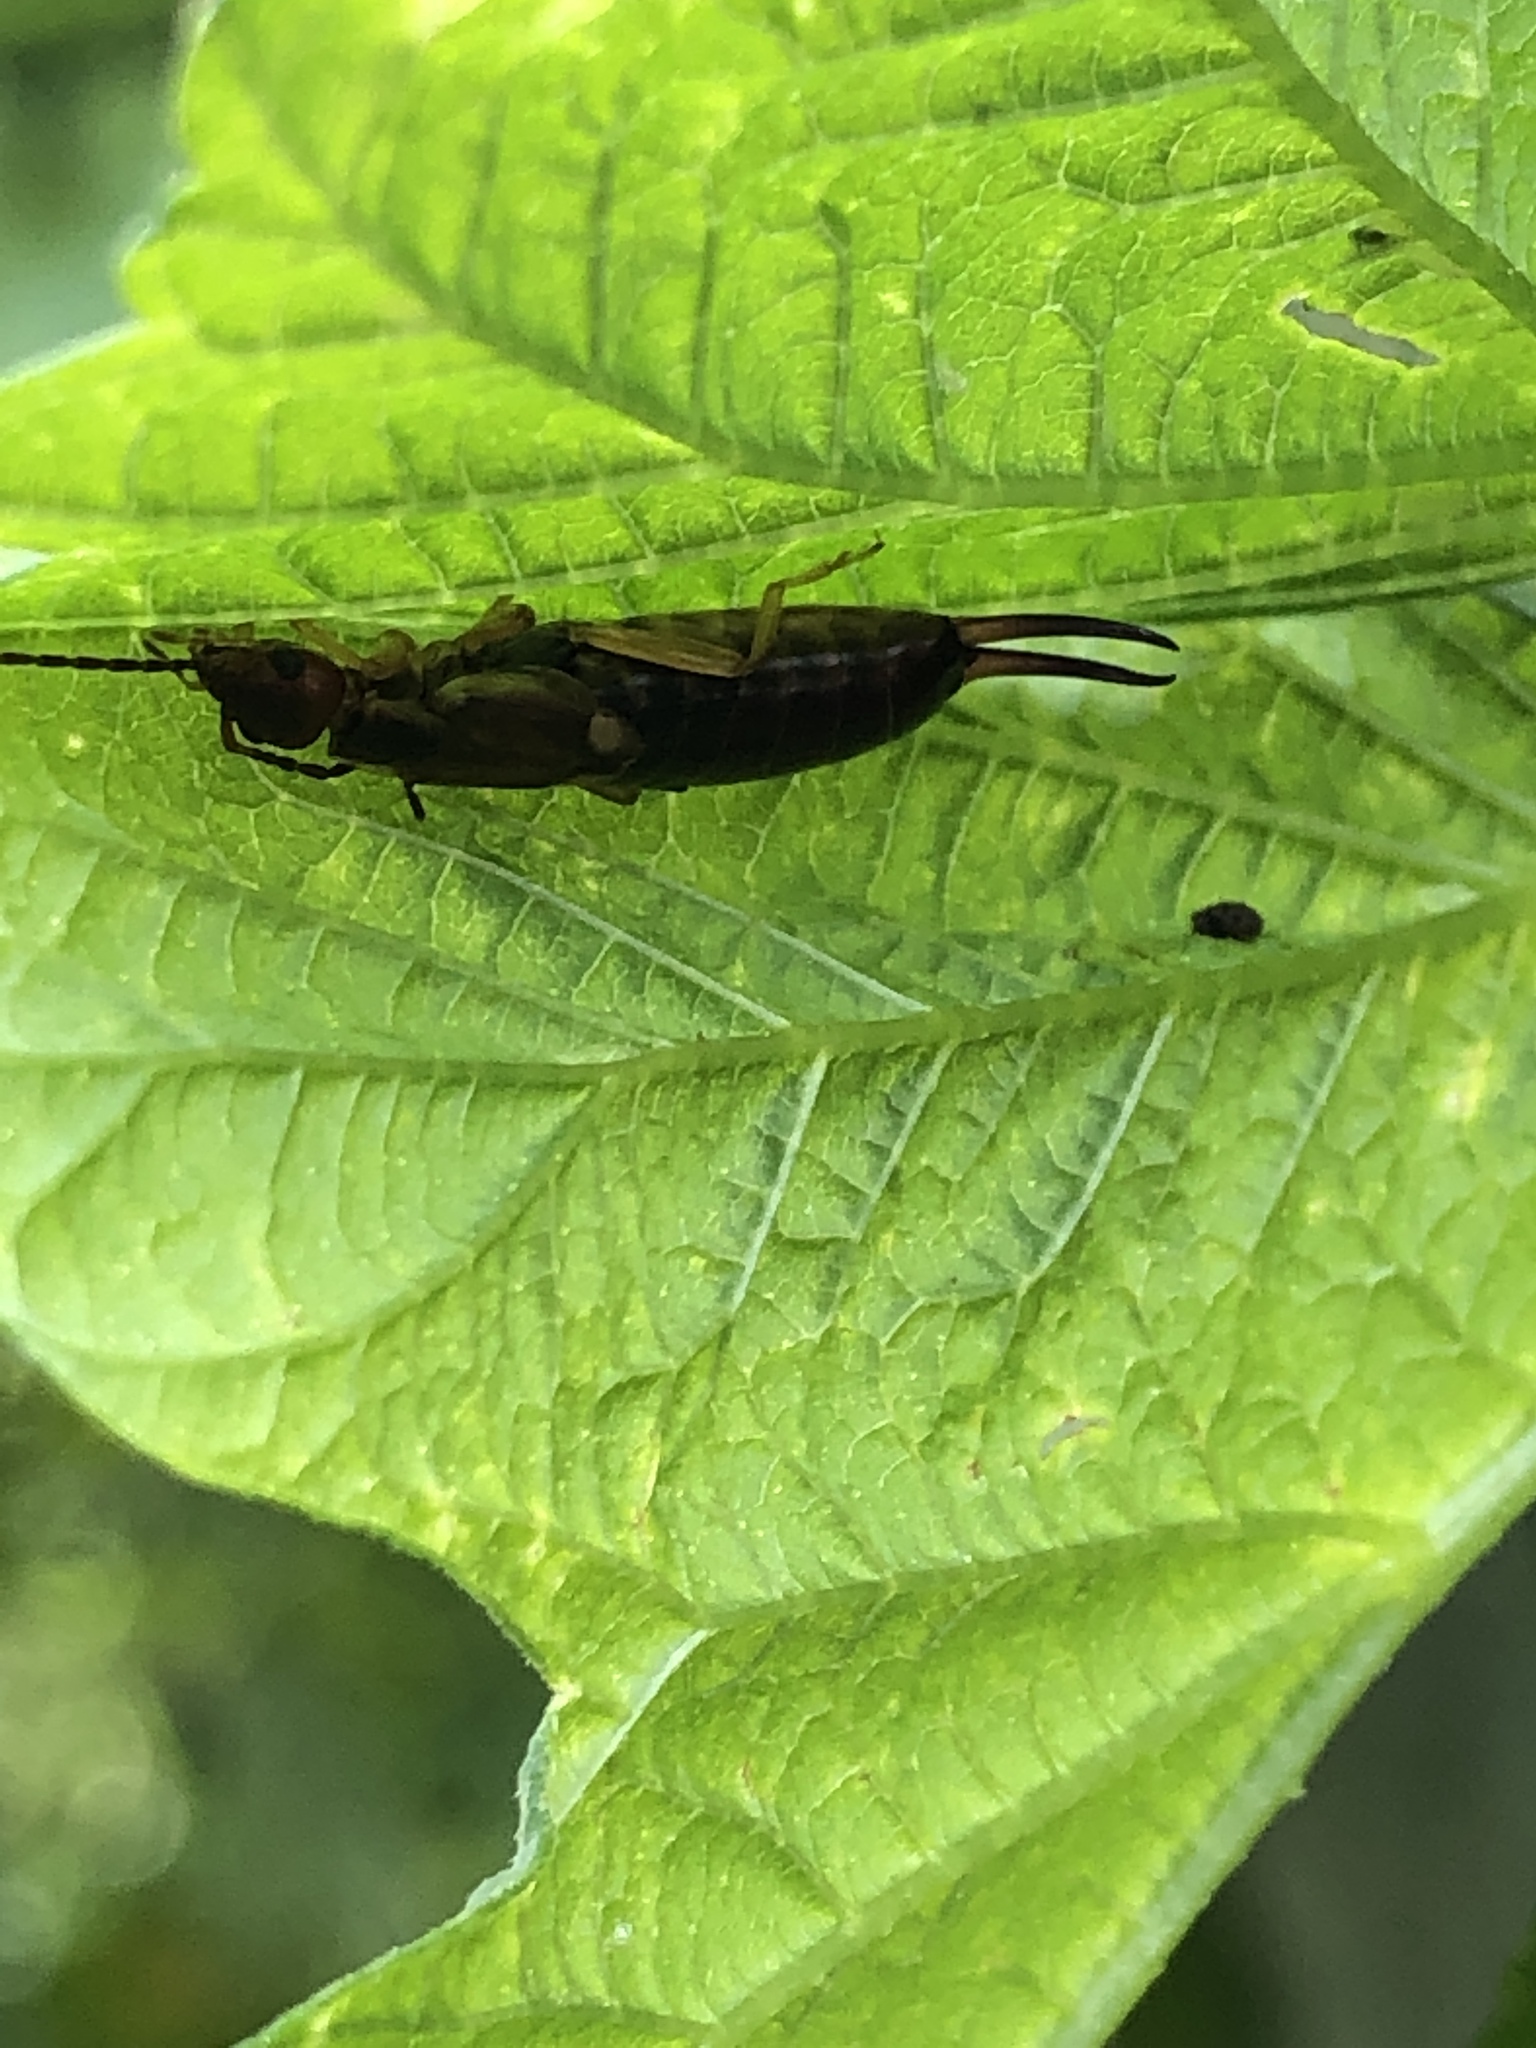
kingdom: Animalia
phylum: Arthropoda
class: Insecta
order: Dermaptera
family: Forficulidae
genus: Forficula
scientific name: Forficula
